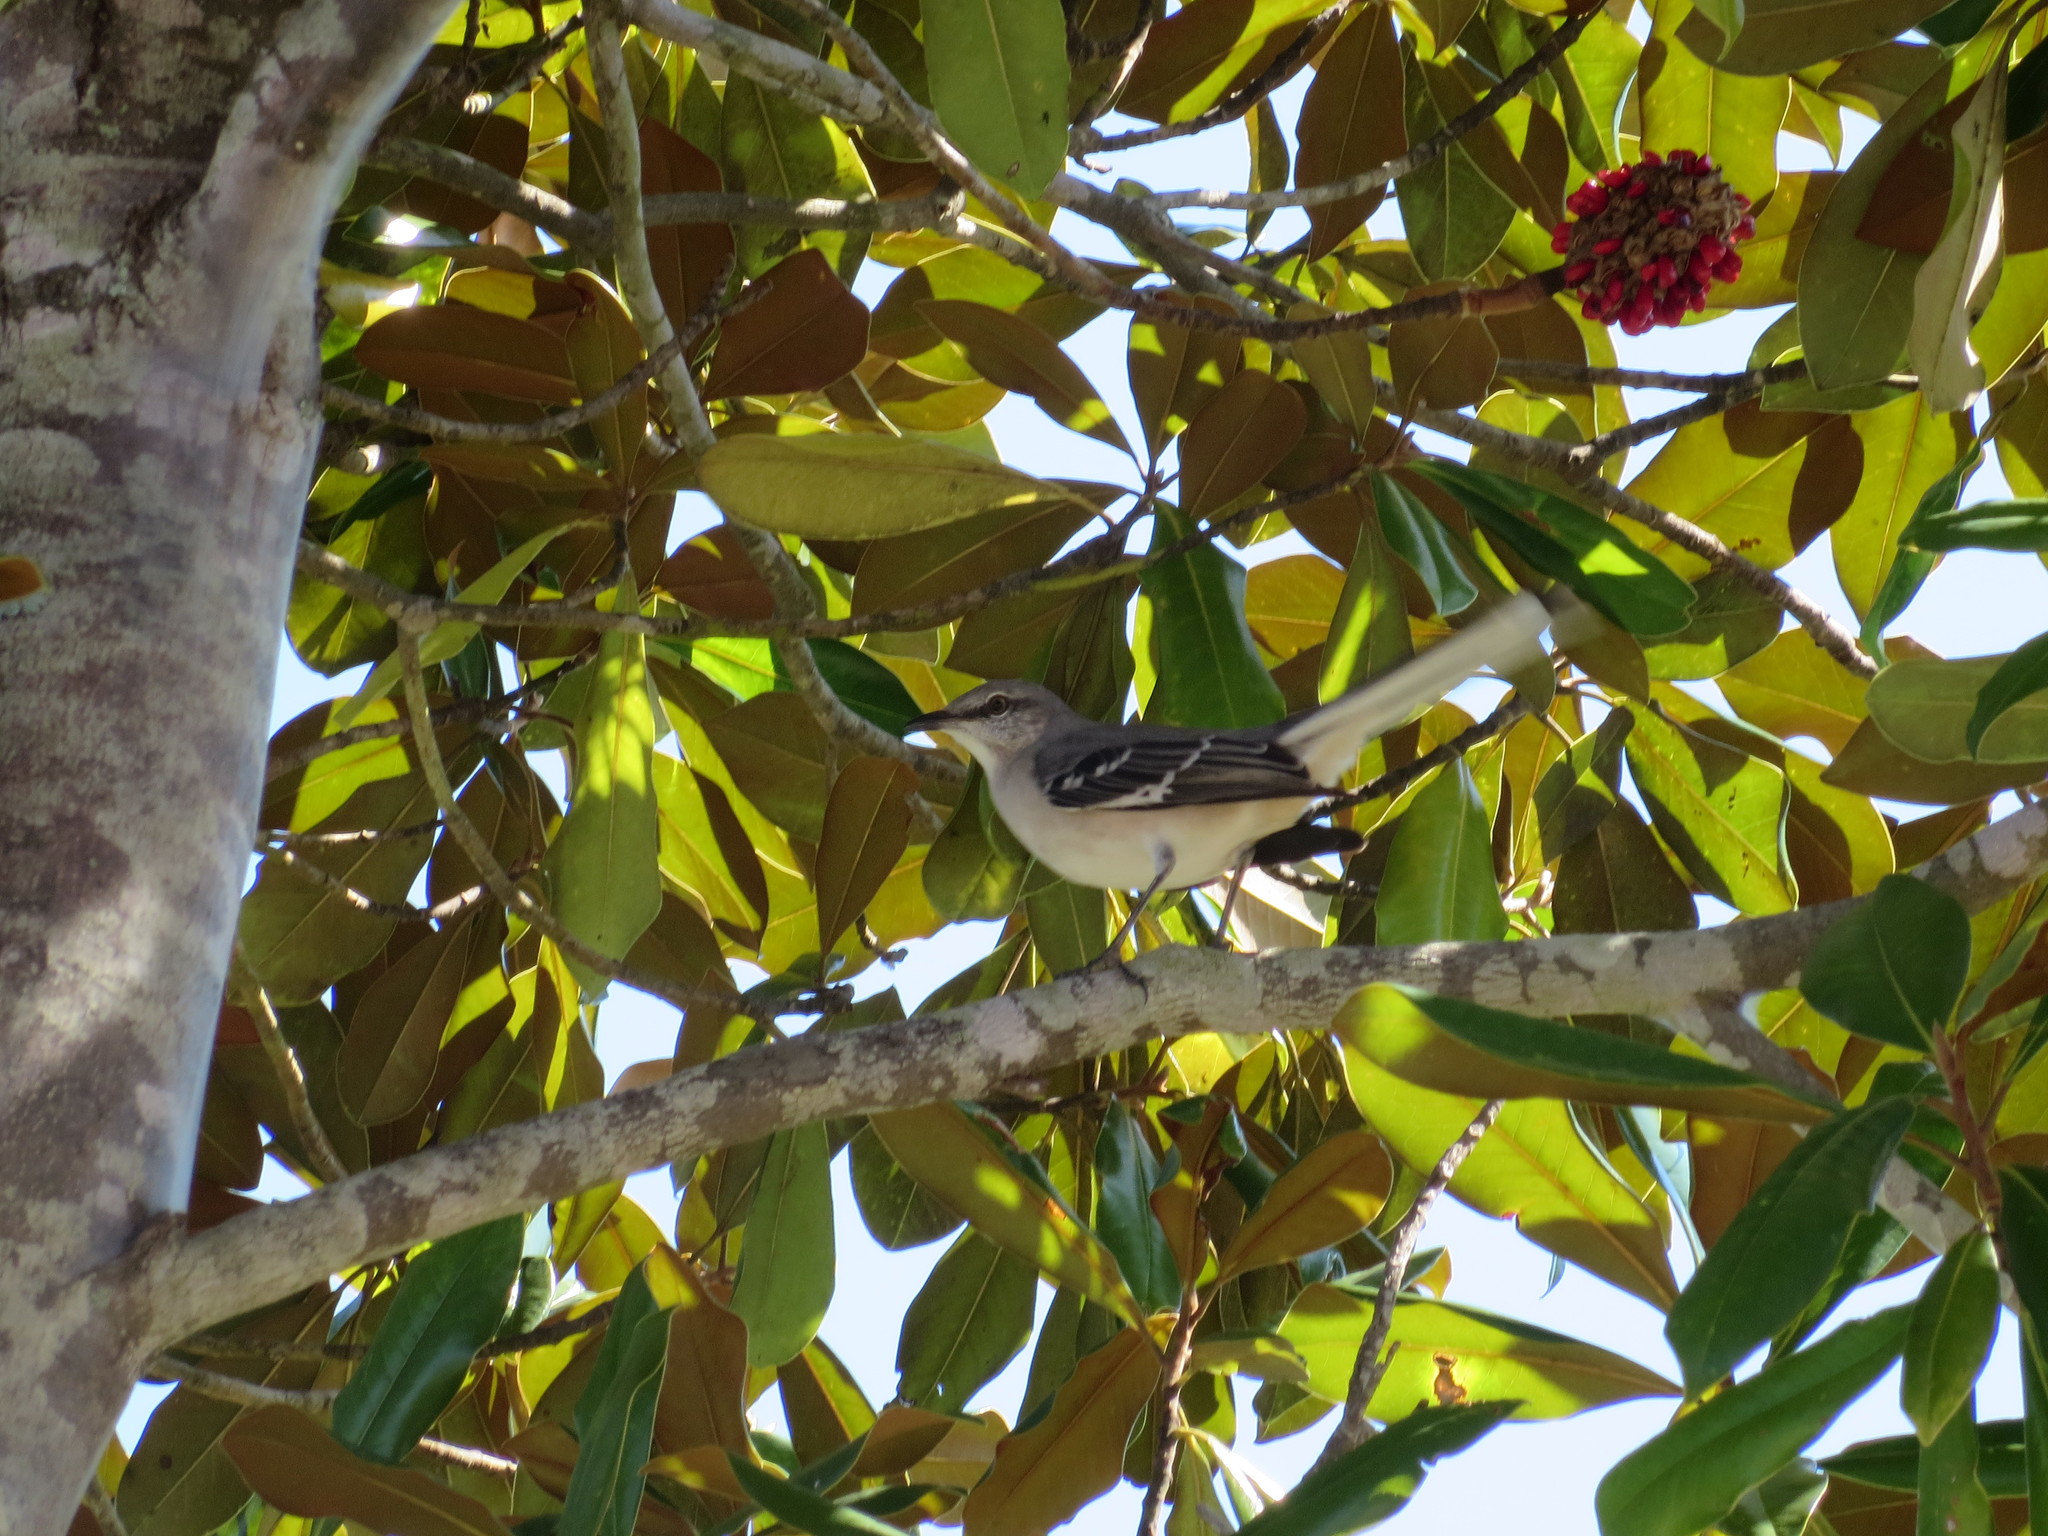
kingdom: Animalia
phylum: Chordata
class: Aves
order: Passeriformes
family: Mimidae
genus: Mimus
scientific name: Mimus polyglottos
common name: Northern mockingbird
